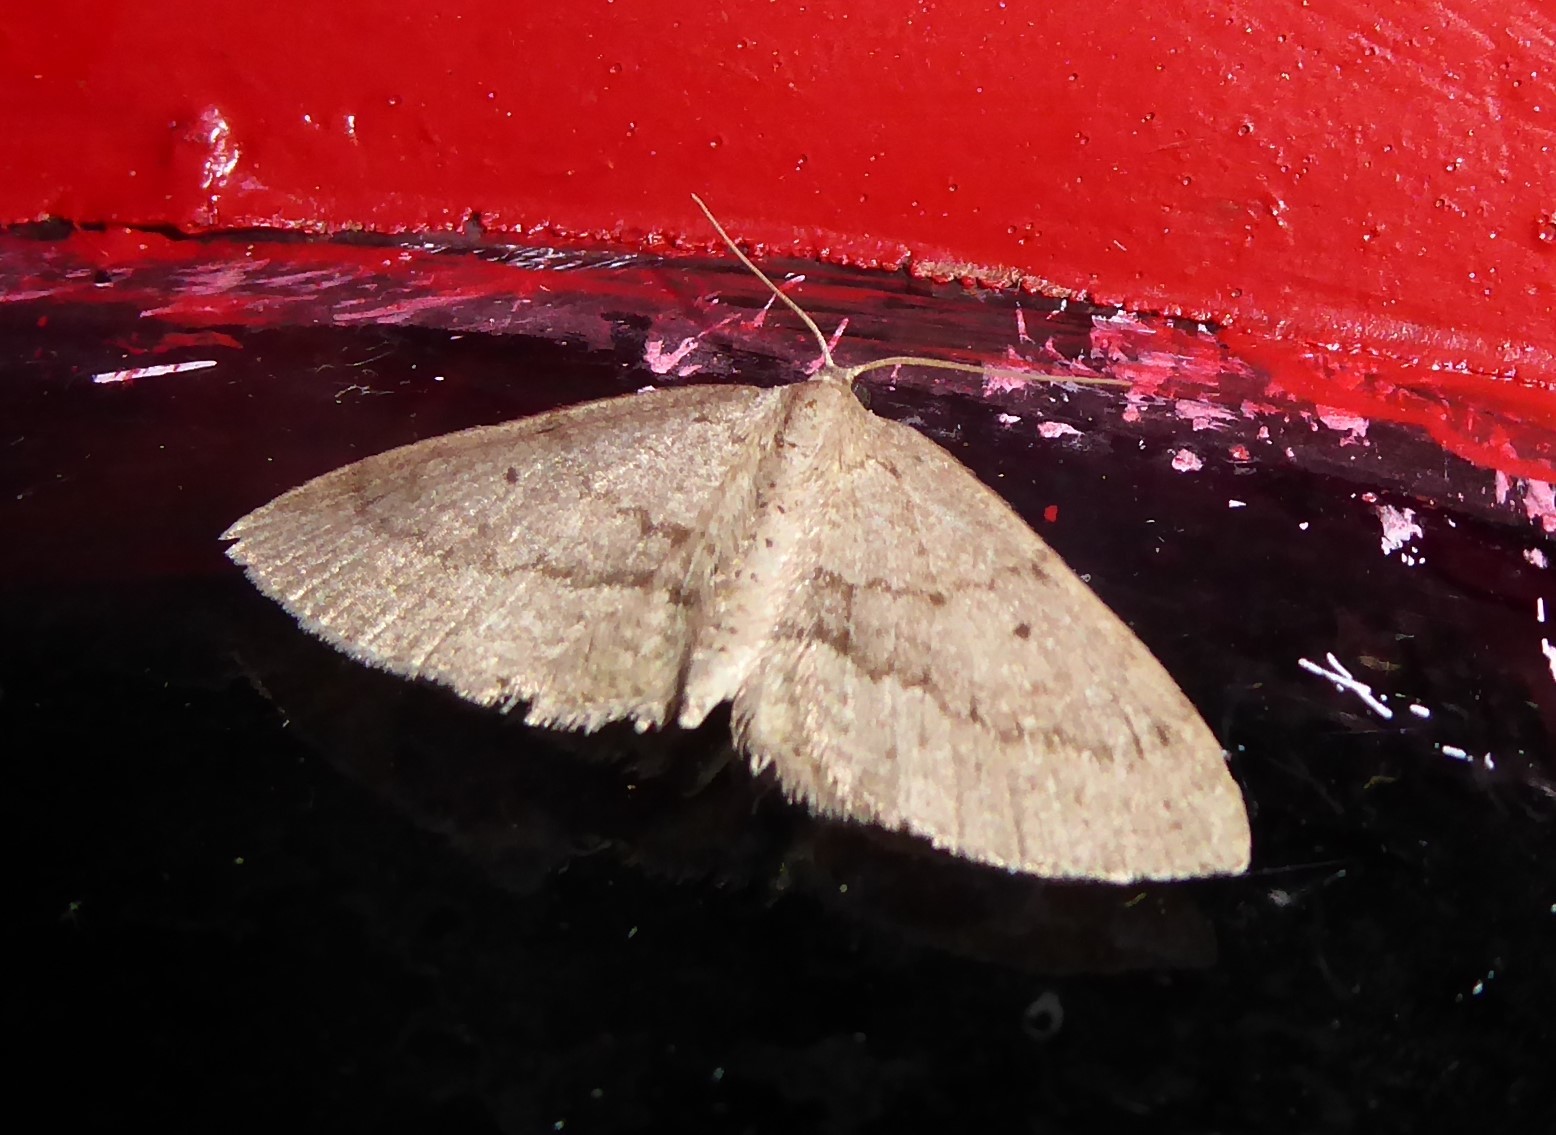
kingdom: Animalia
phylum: Arthropoda
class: Insecta
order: Lepidoptera
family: Geometridae
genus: Poecilasthena
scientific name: Poecilasthena schistaria
